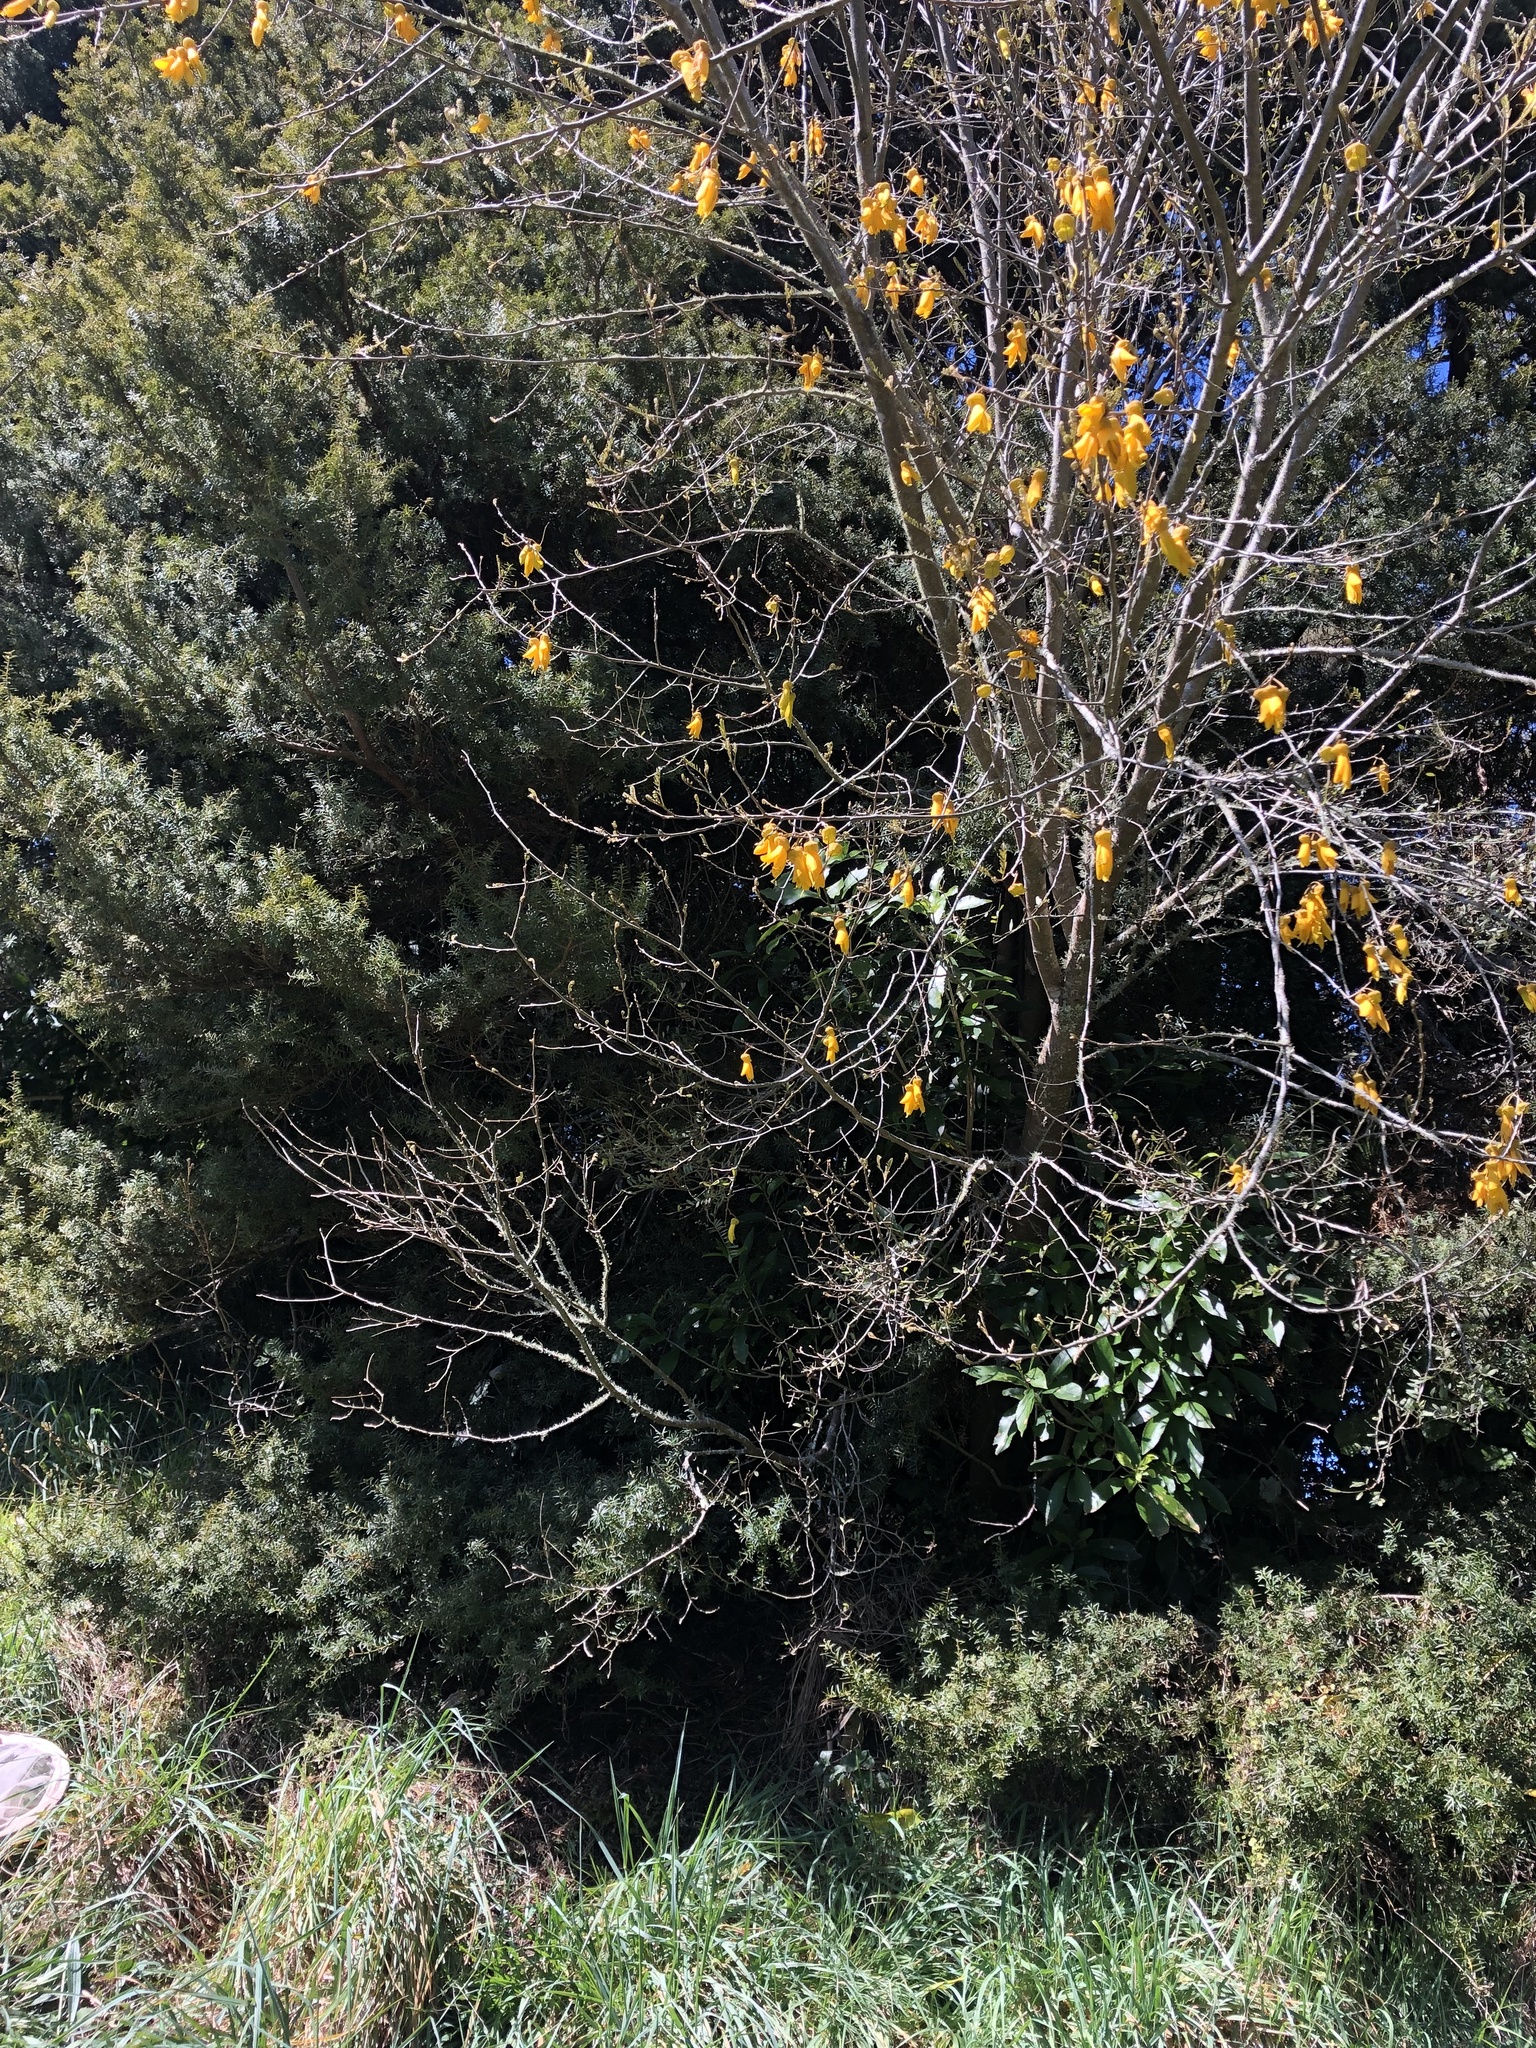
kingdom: Plantae
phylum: Tracheophyta
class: Magnoliopsida
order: Fabales
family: Fabaceae
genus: Sophora
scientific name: Sophora tetraptera
